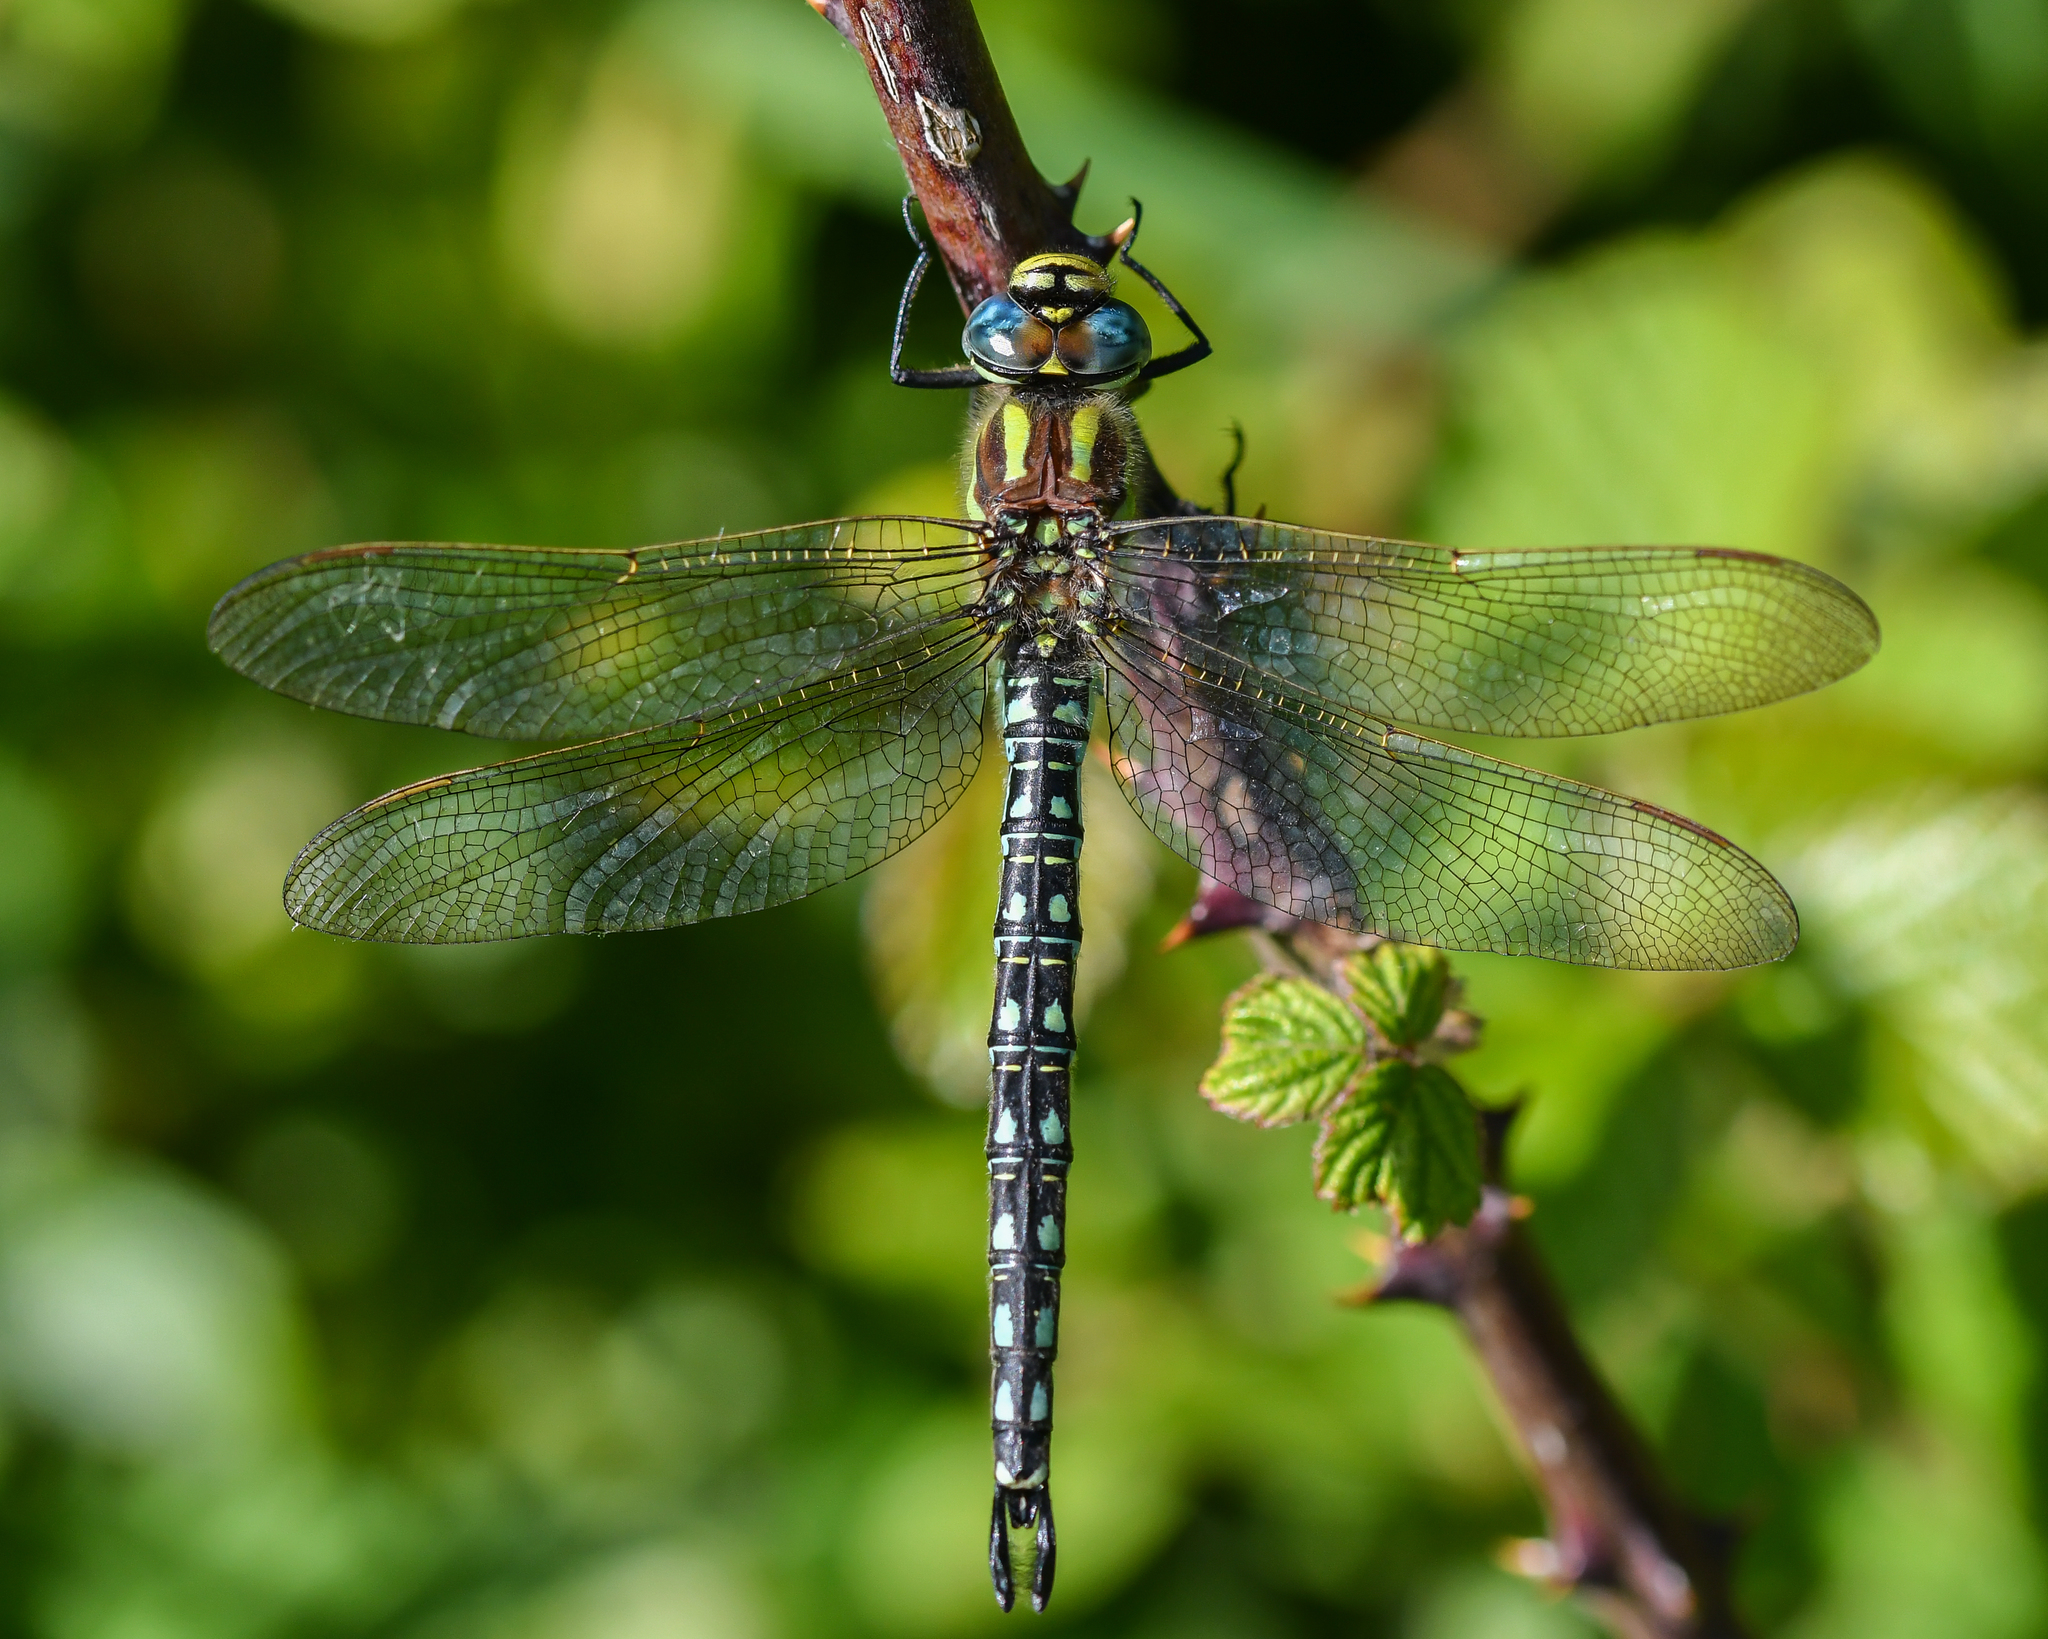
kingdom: Animalia
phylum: Arthropoda
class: Insecta
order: Odonata
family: Aeshnidae
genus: Brachytron
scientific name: Brachytron pratense
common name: Hairy hawker
